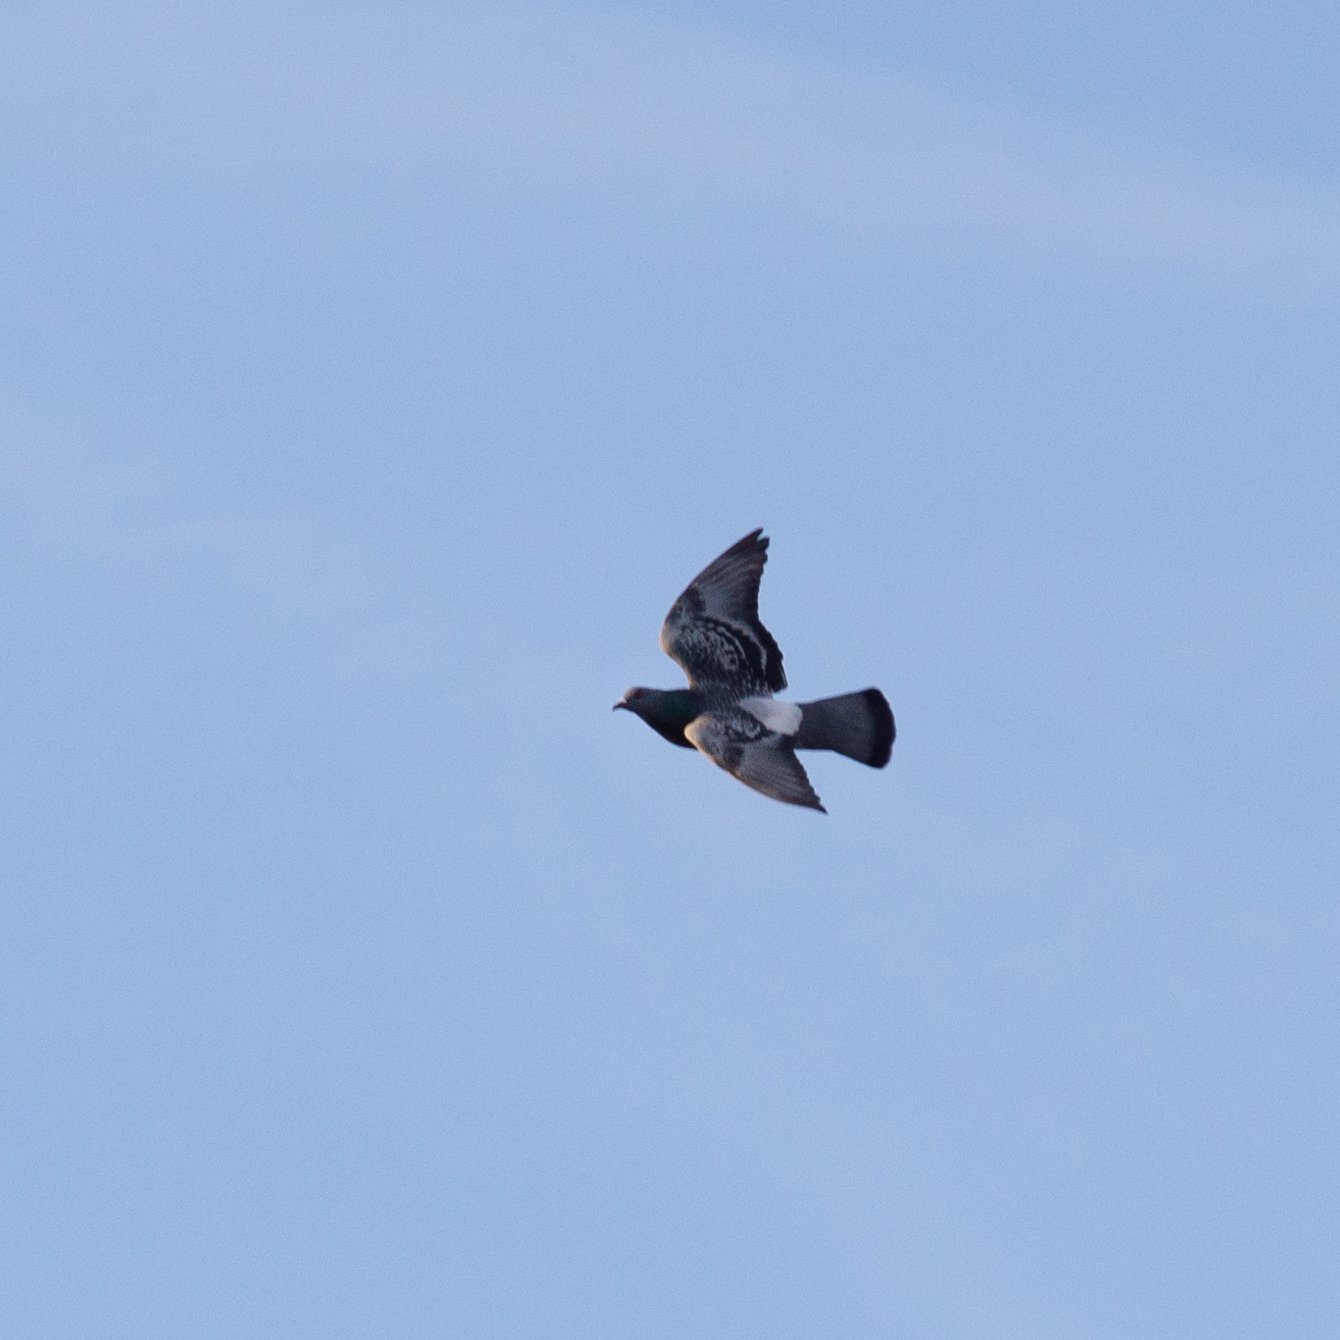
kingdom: Animalia
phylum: Chordata
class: Aves
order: Columbiformes
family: Columbidae
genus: Columba
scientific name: Columba livia
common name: Rock pigeon
